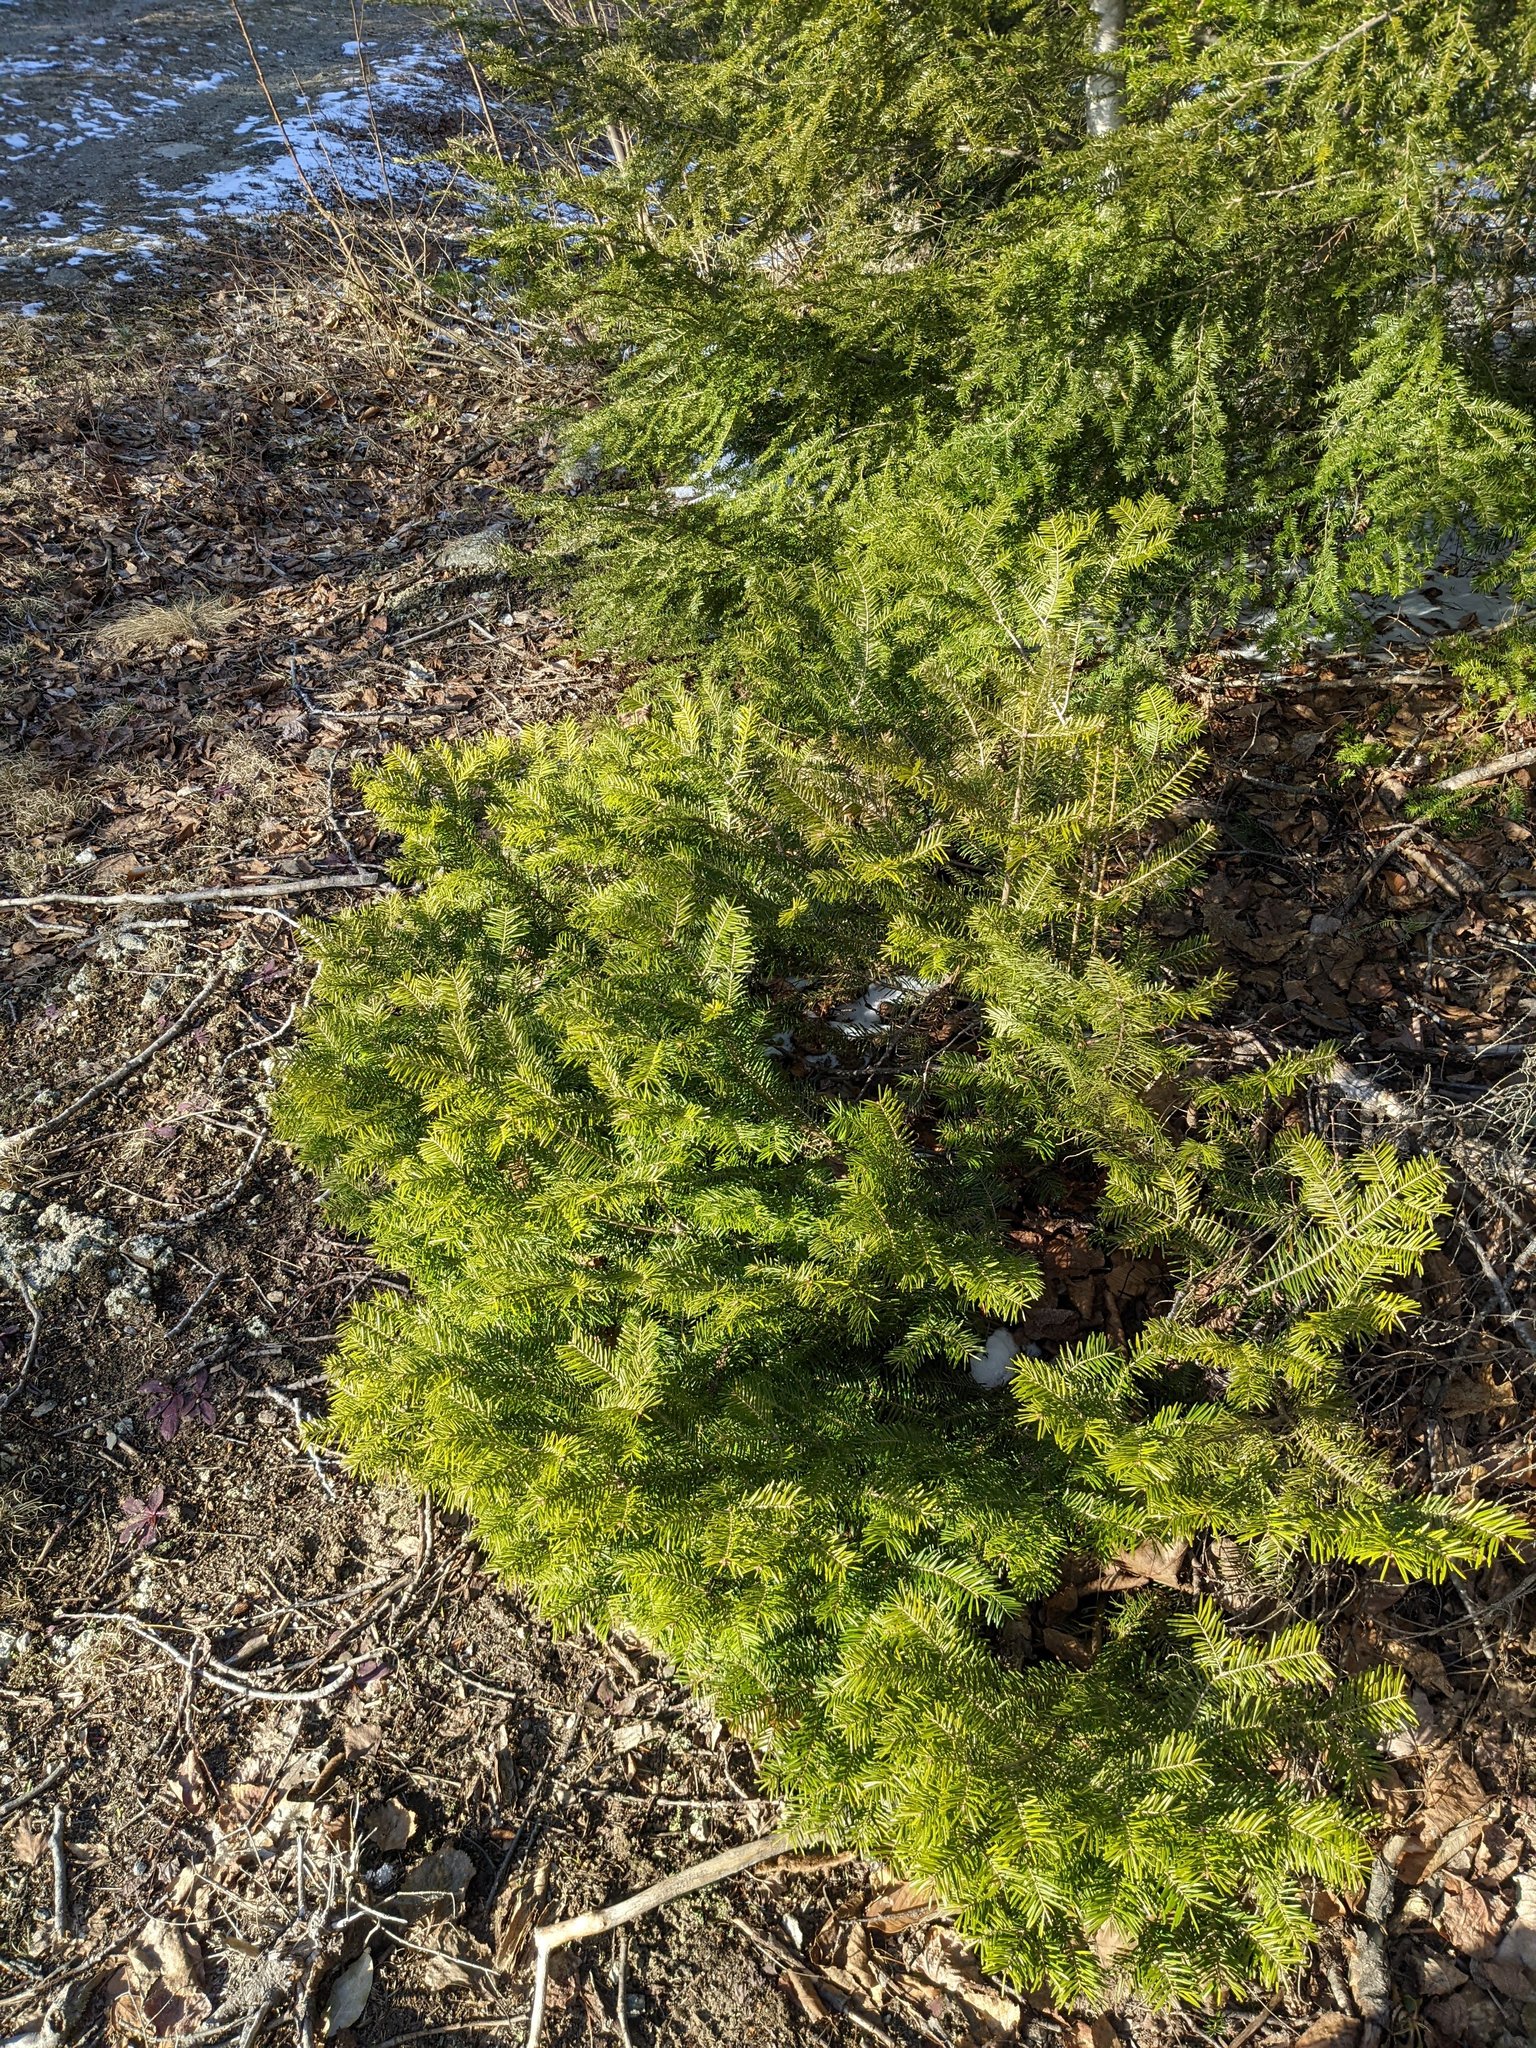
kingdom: Plantae
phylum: Tracheophyta
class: Pinopsida
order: Pinales
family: Pinaceae
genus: Abies
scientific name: Abies balsamea
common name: Balsam fir
